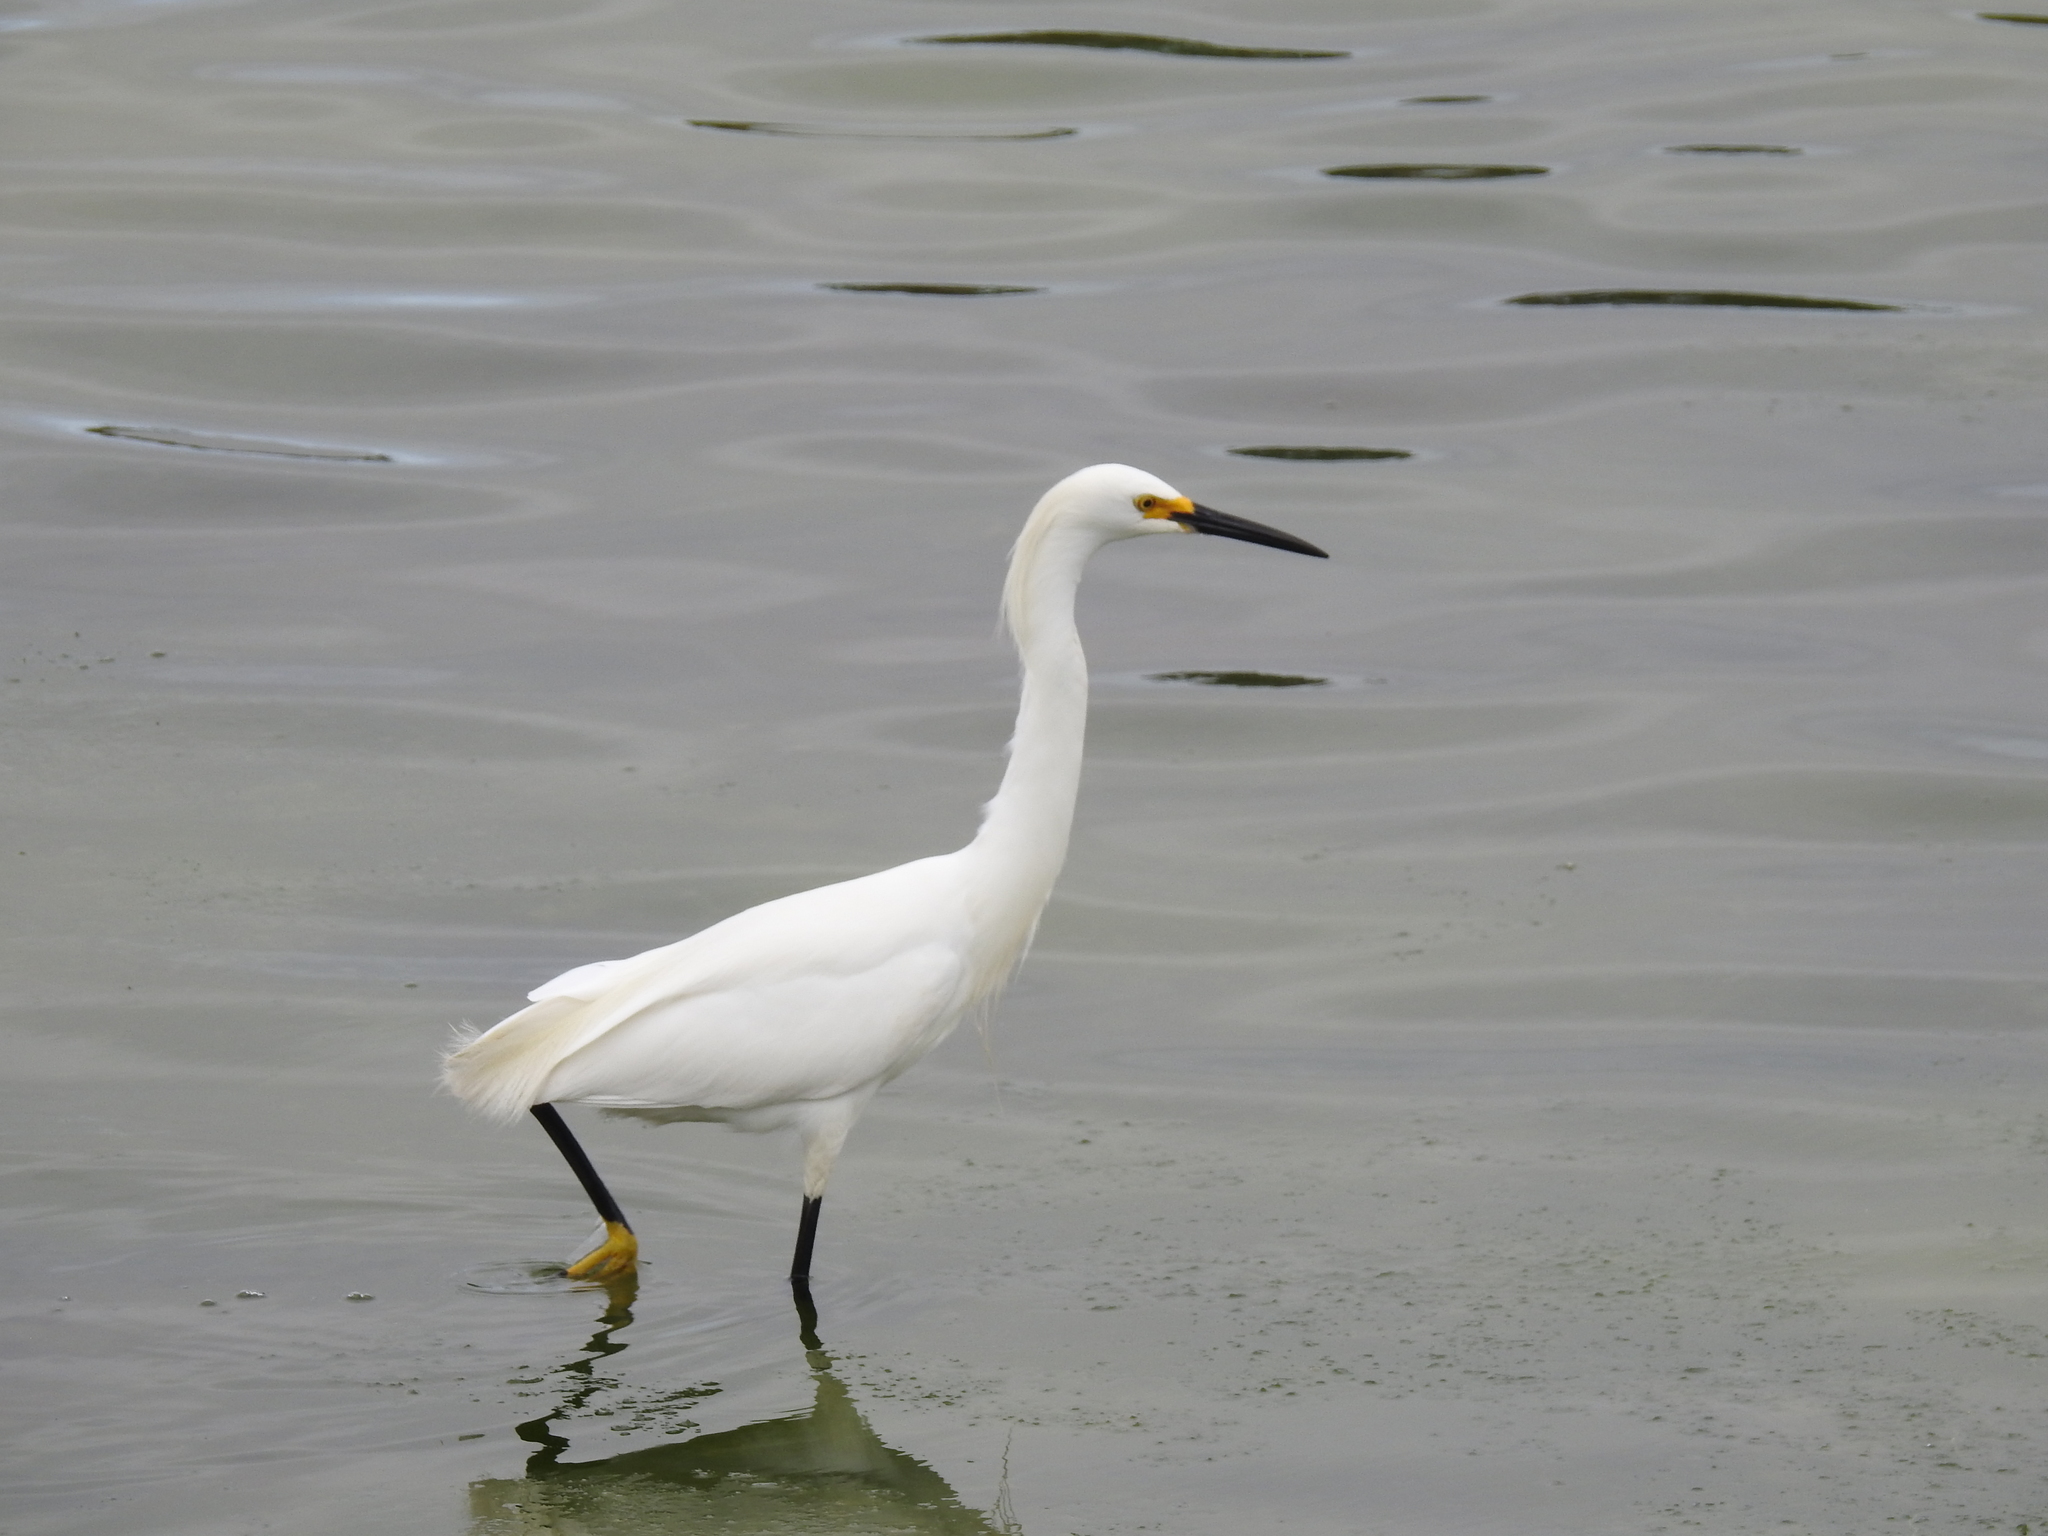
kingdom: Animalia
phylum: Chordata
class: Aves
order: Pelecaniformes
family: Ardeidae
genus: Egretta
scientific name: Egretta thula
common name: Snowy egret
